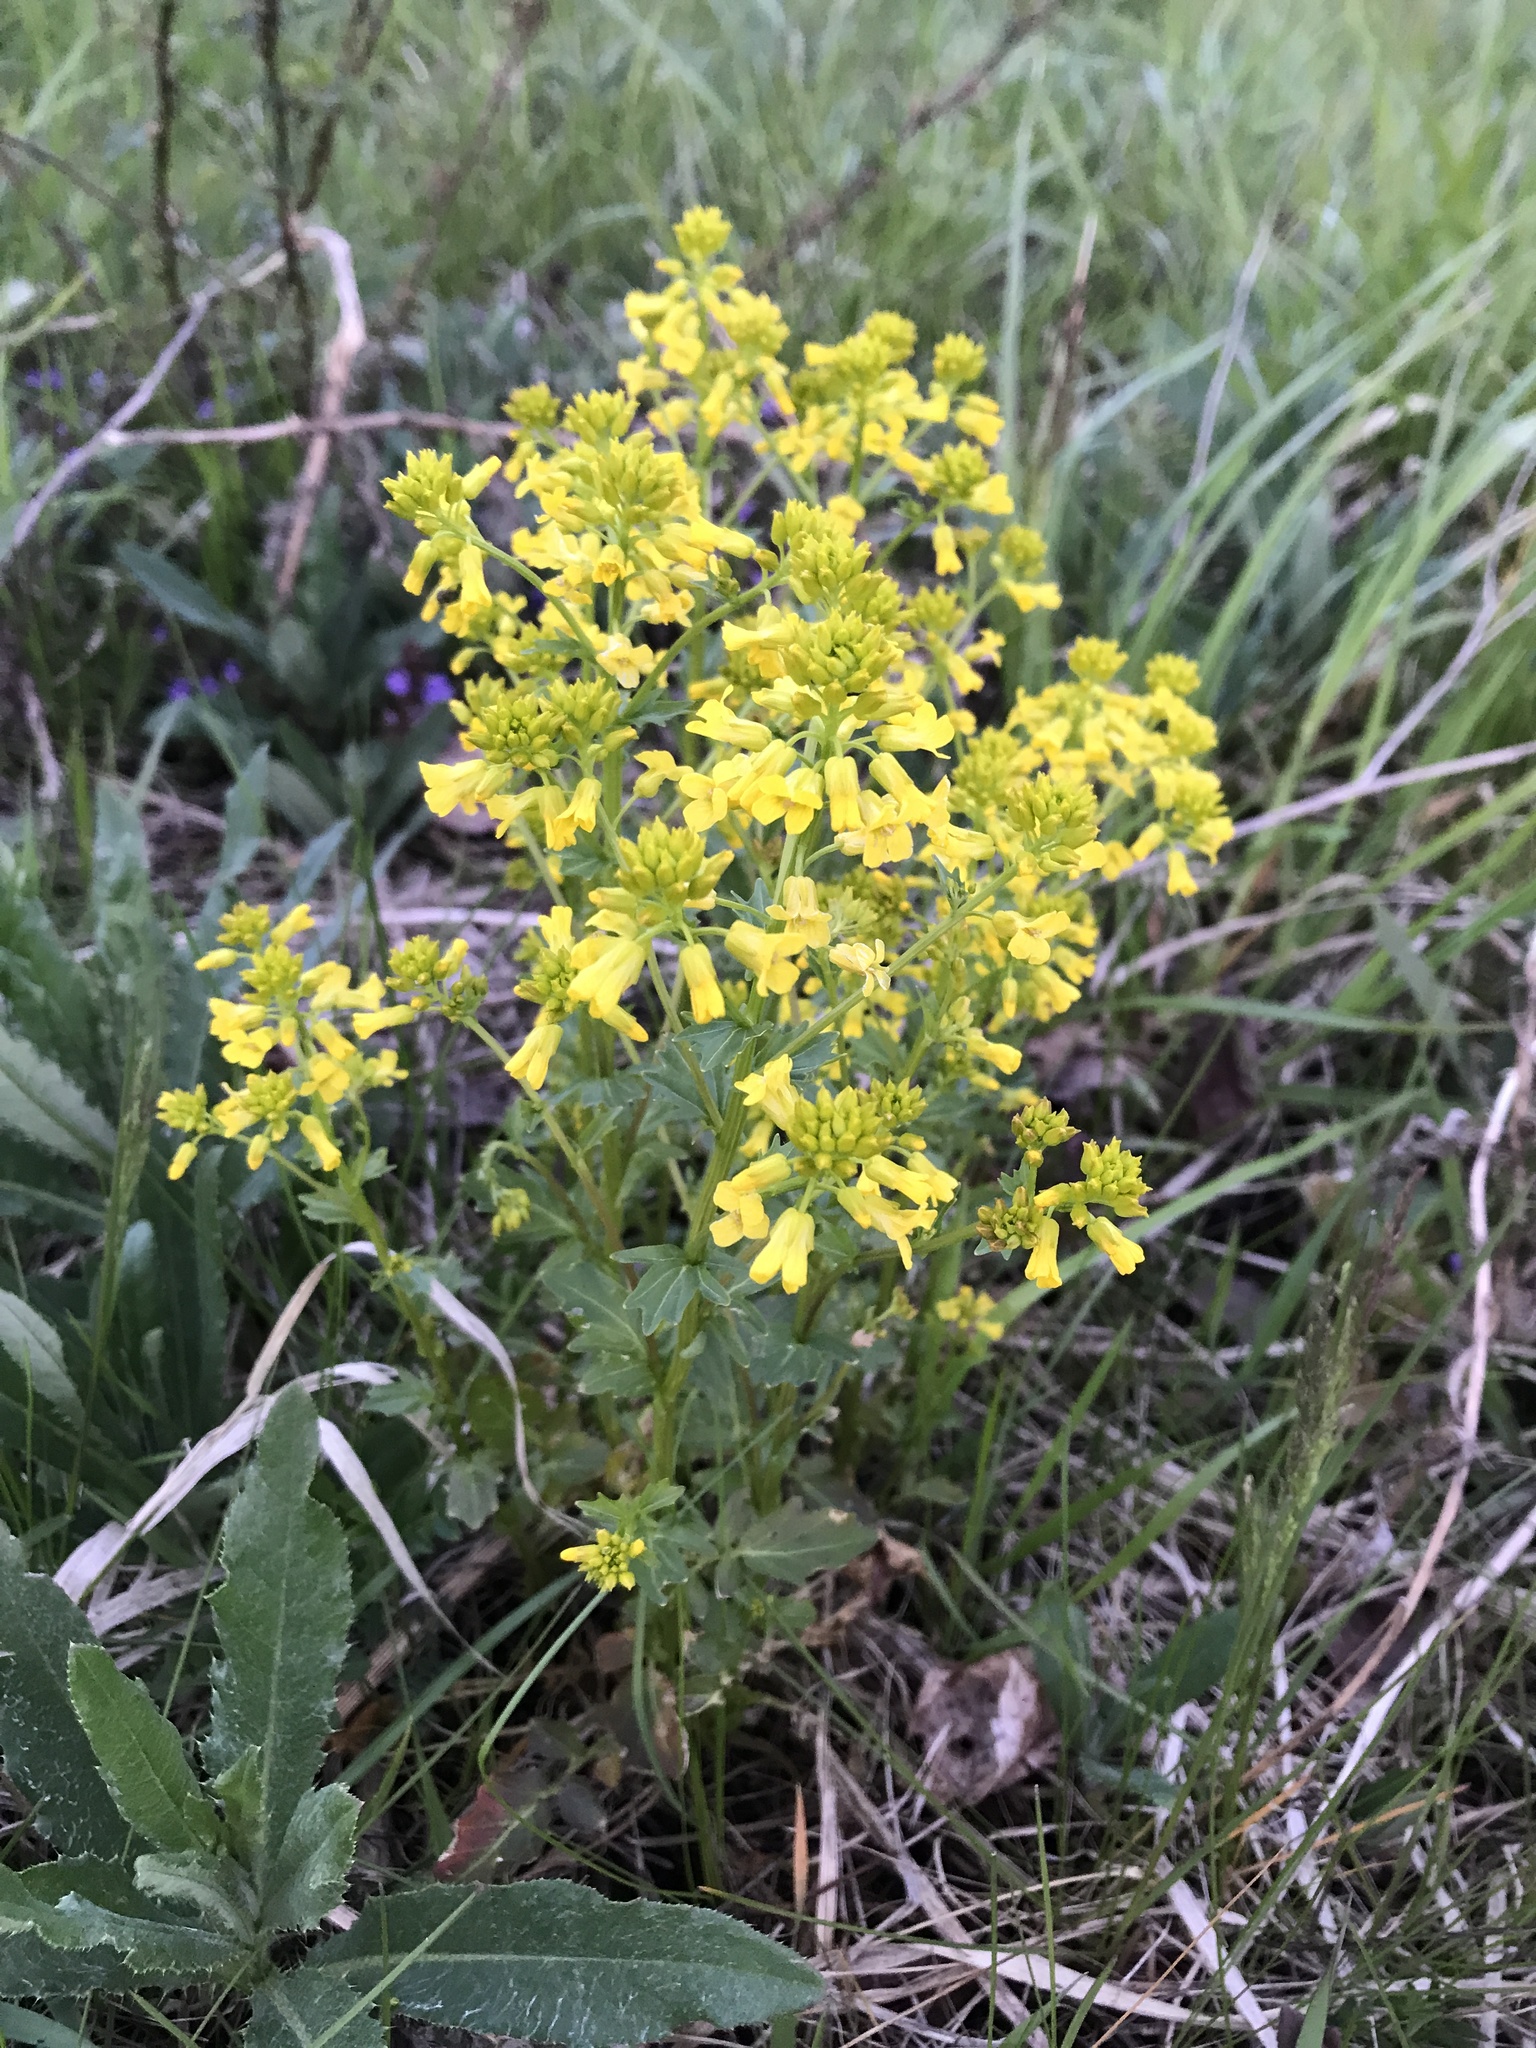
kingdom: Plantae
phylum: Tracheophyta
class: Magnoliopsida
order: Brassicales
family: Brassicaceae
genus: Barbarea
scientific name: Barbarea vulgaris
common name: Cressy-greens
